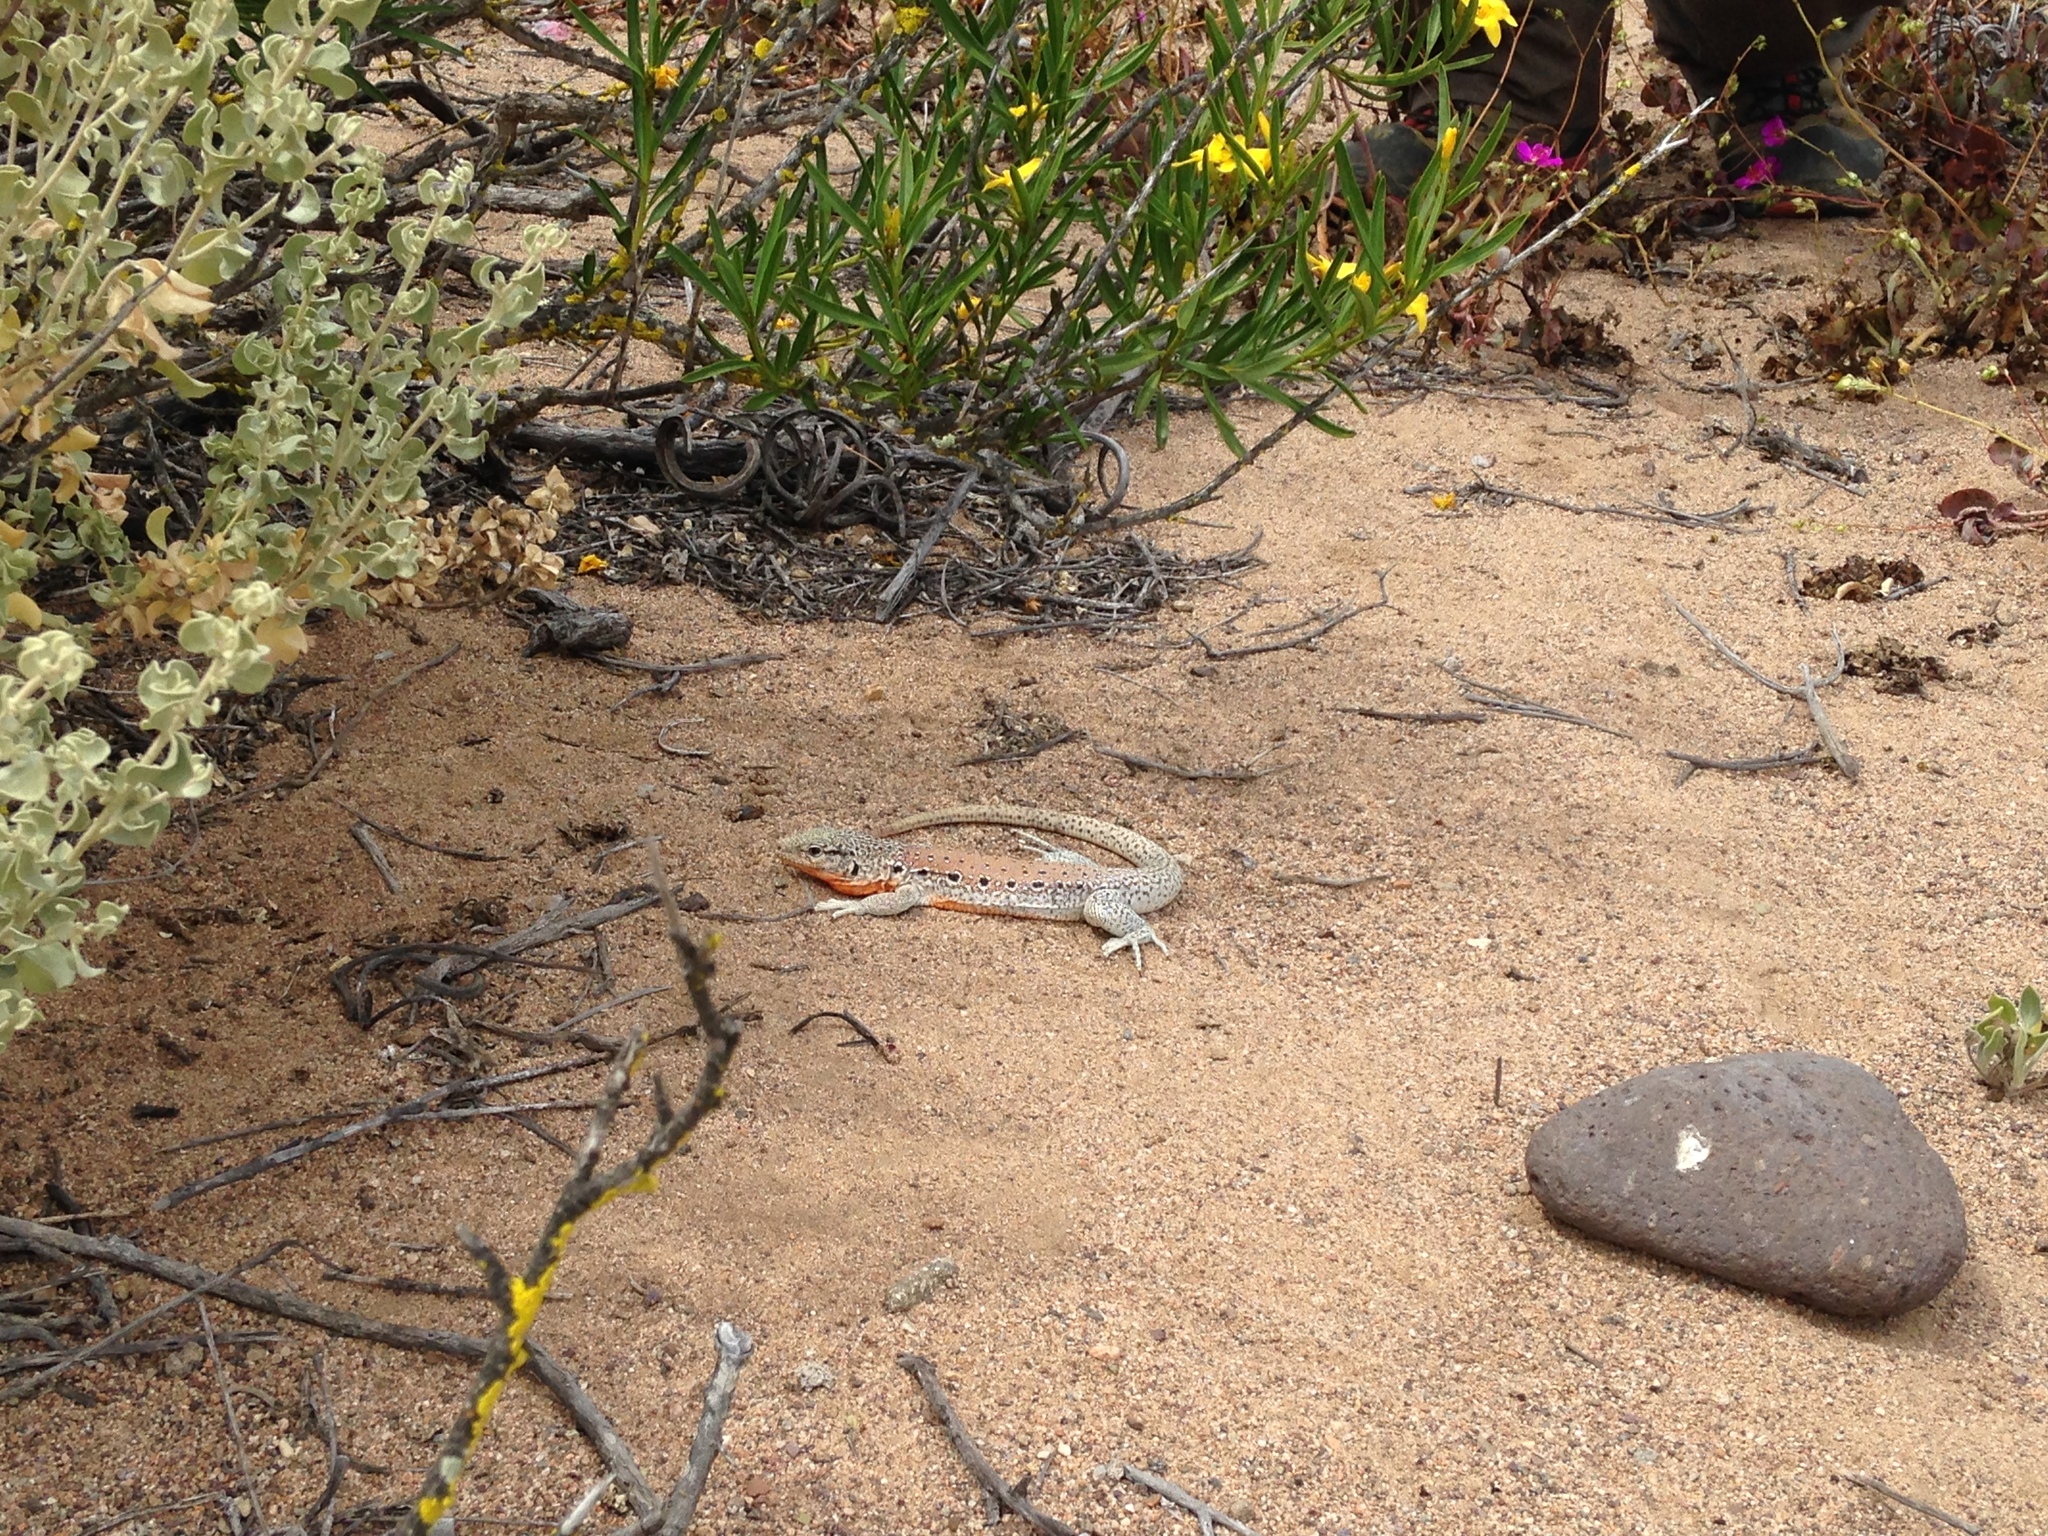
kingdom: Animalia
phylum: Chordata
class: Squamata
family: Teiidae
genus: Callopistes
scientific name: Callopistes maculatus
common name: Spotted false monitor
